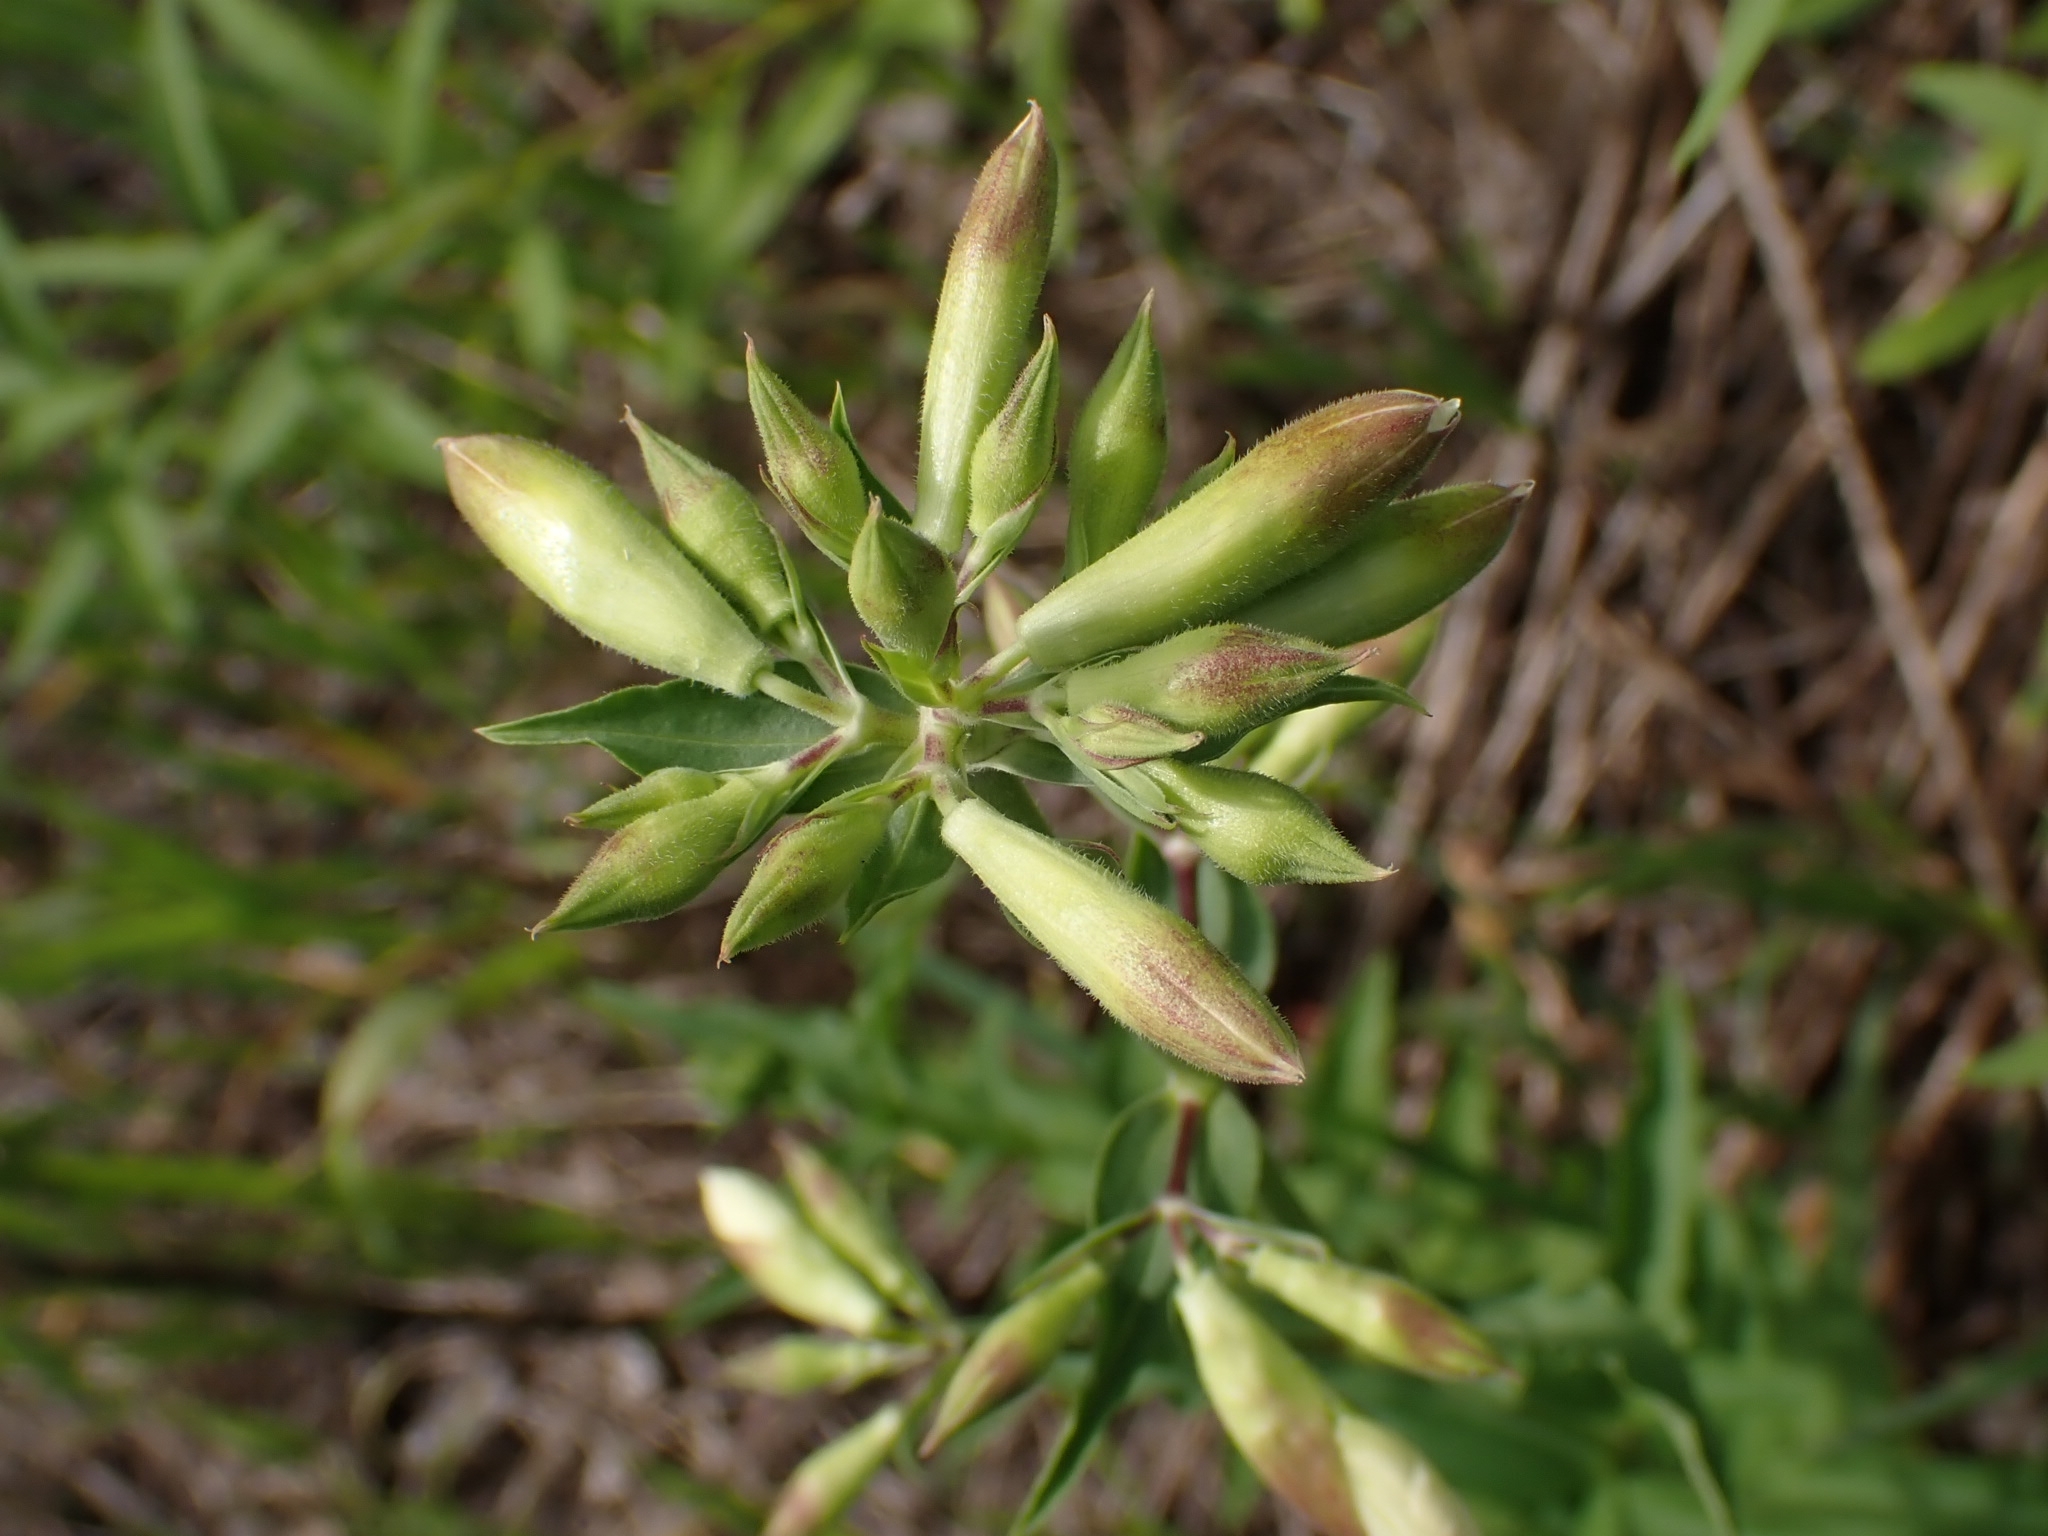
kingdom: Plantae
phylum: Tracheophyta
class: Magnoliopsida
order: Caryophyllales
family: Caryophyllaceae
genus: Saponaria
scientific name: Saponaria officinalis
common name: Soapwort
